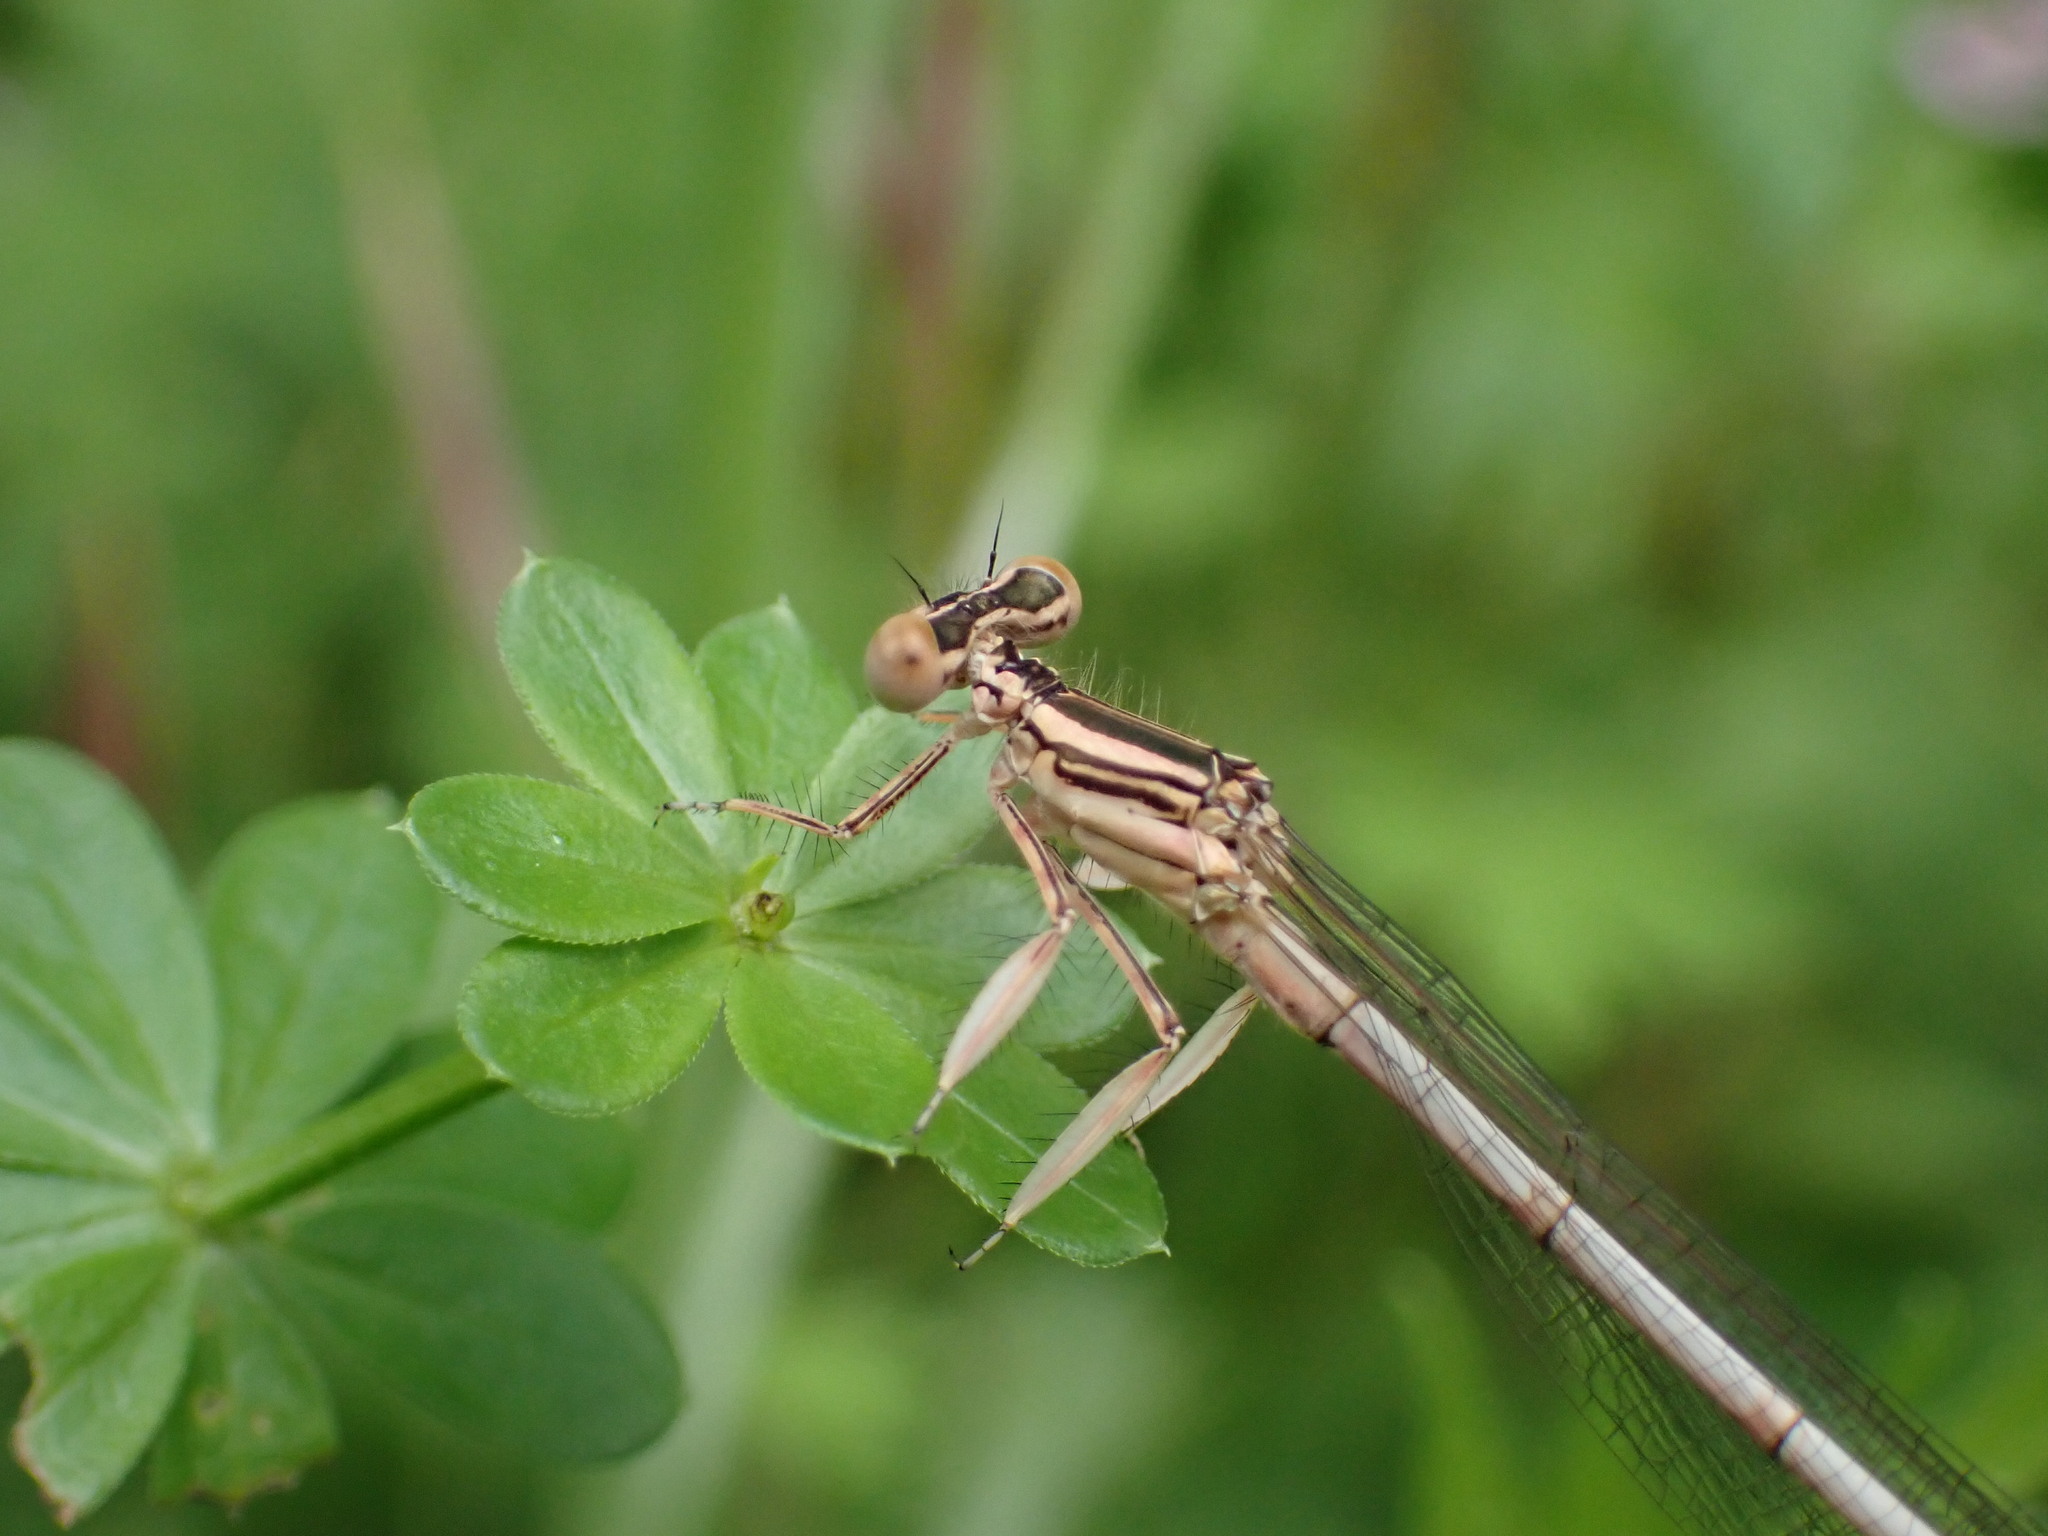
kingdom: Animalia
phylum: Arthropoda
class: Insecta
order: Odonata
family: Platycnemididae
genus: Platycnemis
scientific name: Platycnemis latipes
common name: White featherleg
